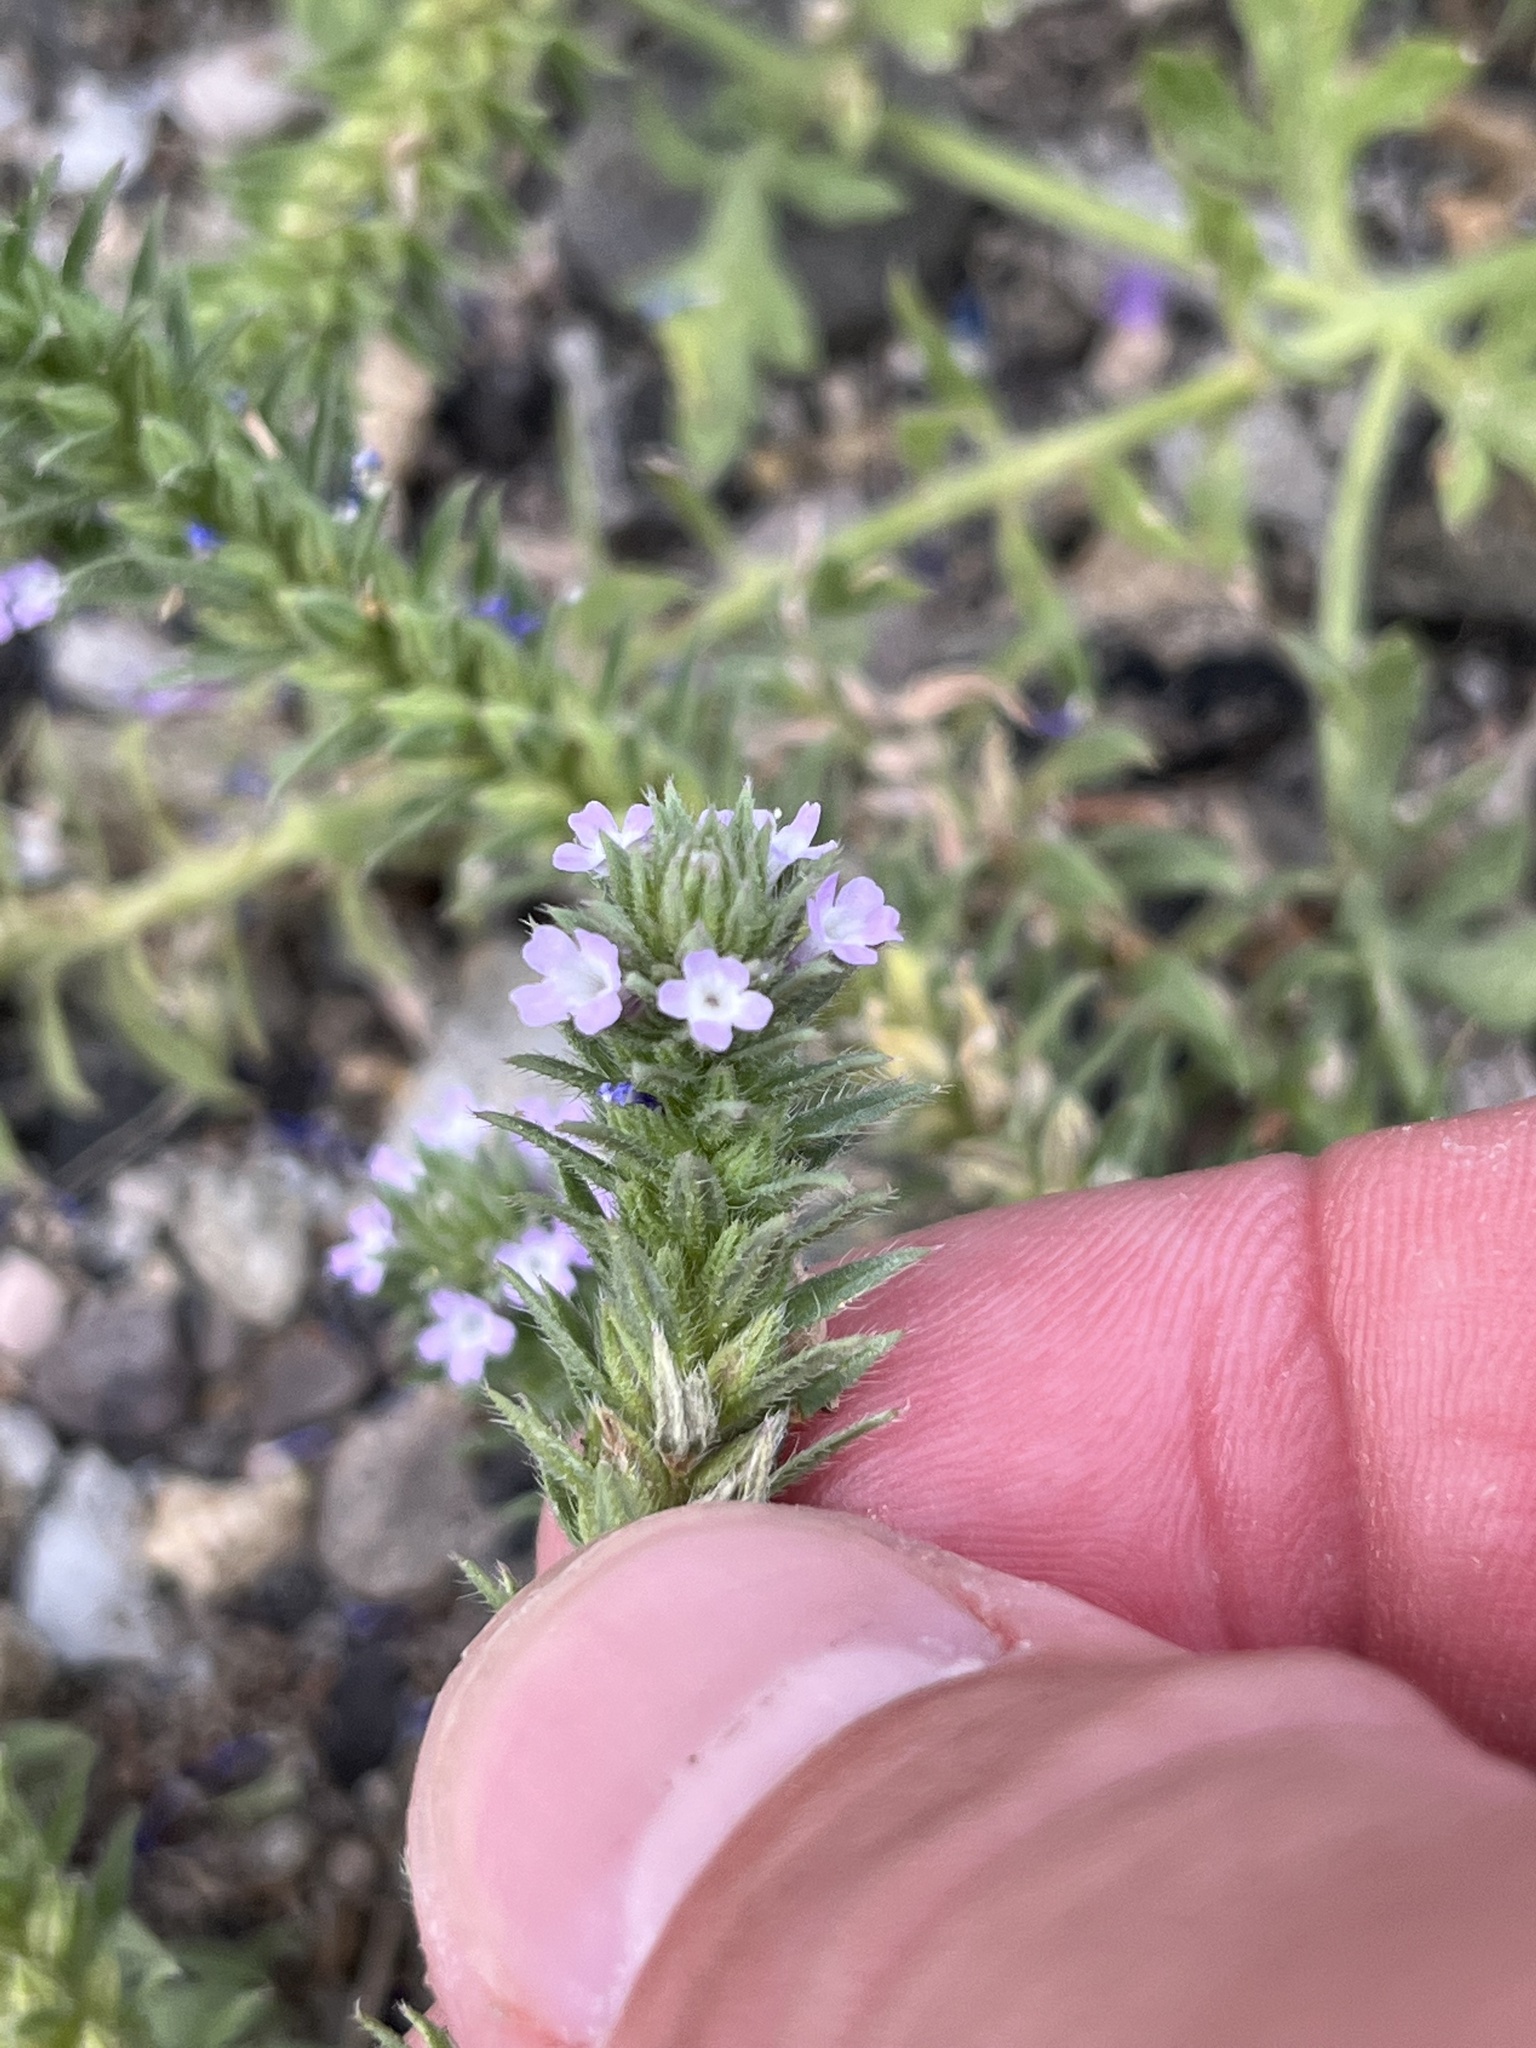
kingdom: Plantae
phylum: Tracheophyta
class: Magnoliopsida
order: Lamiales
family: Verbenaceae
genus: Verbena
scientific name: Verbena bracteata
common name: Bracted vervain
